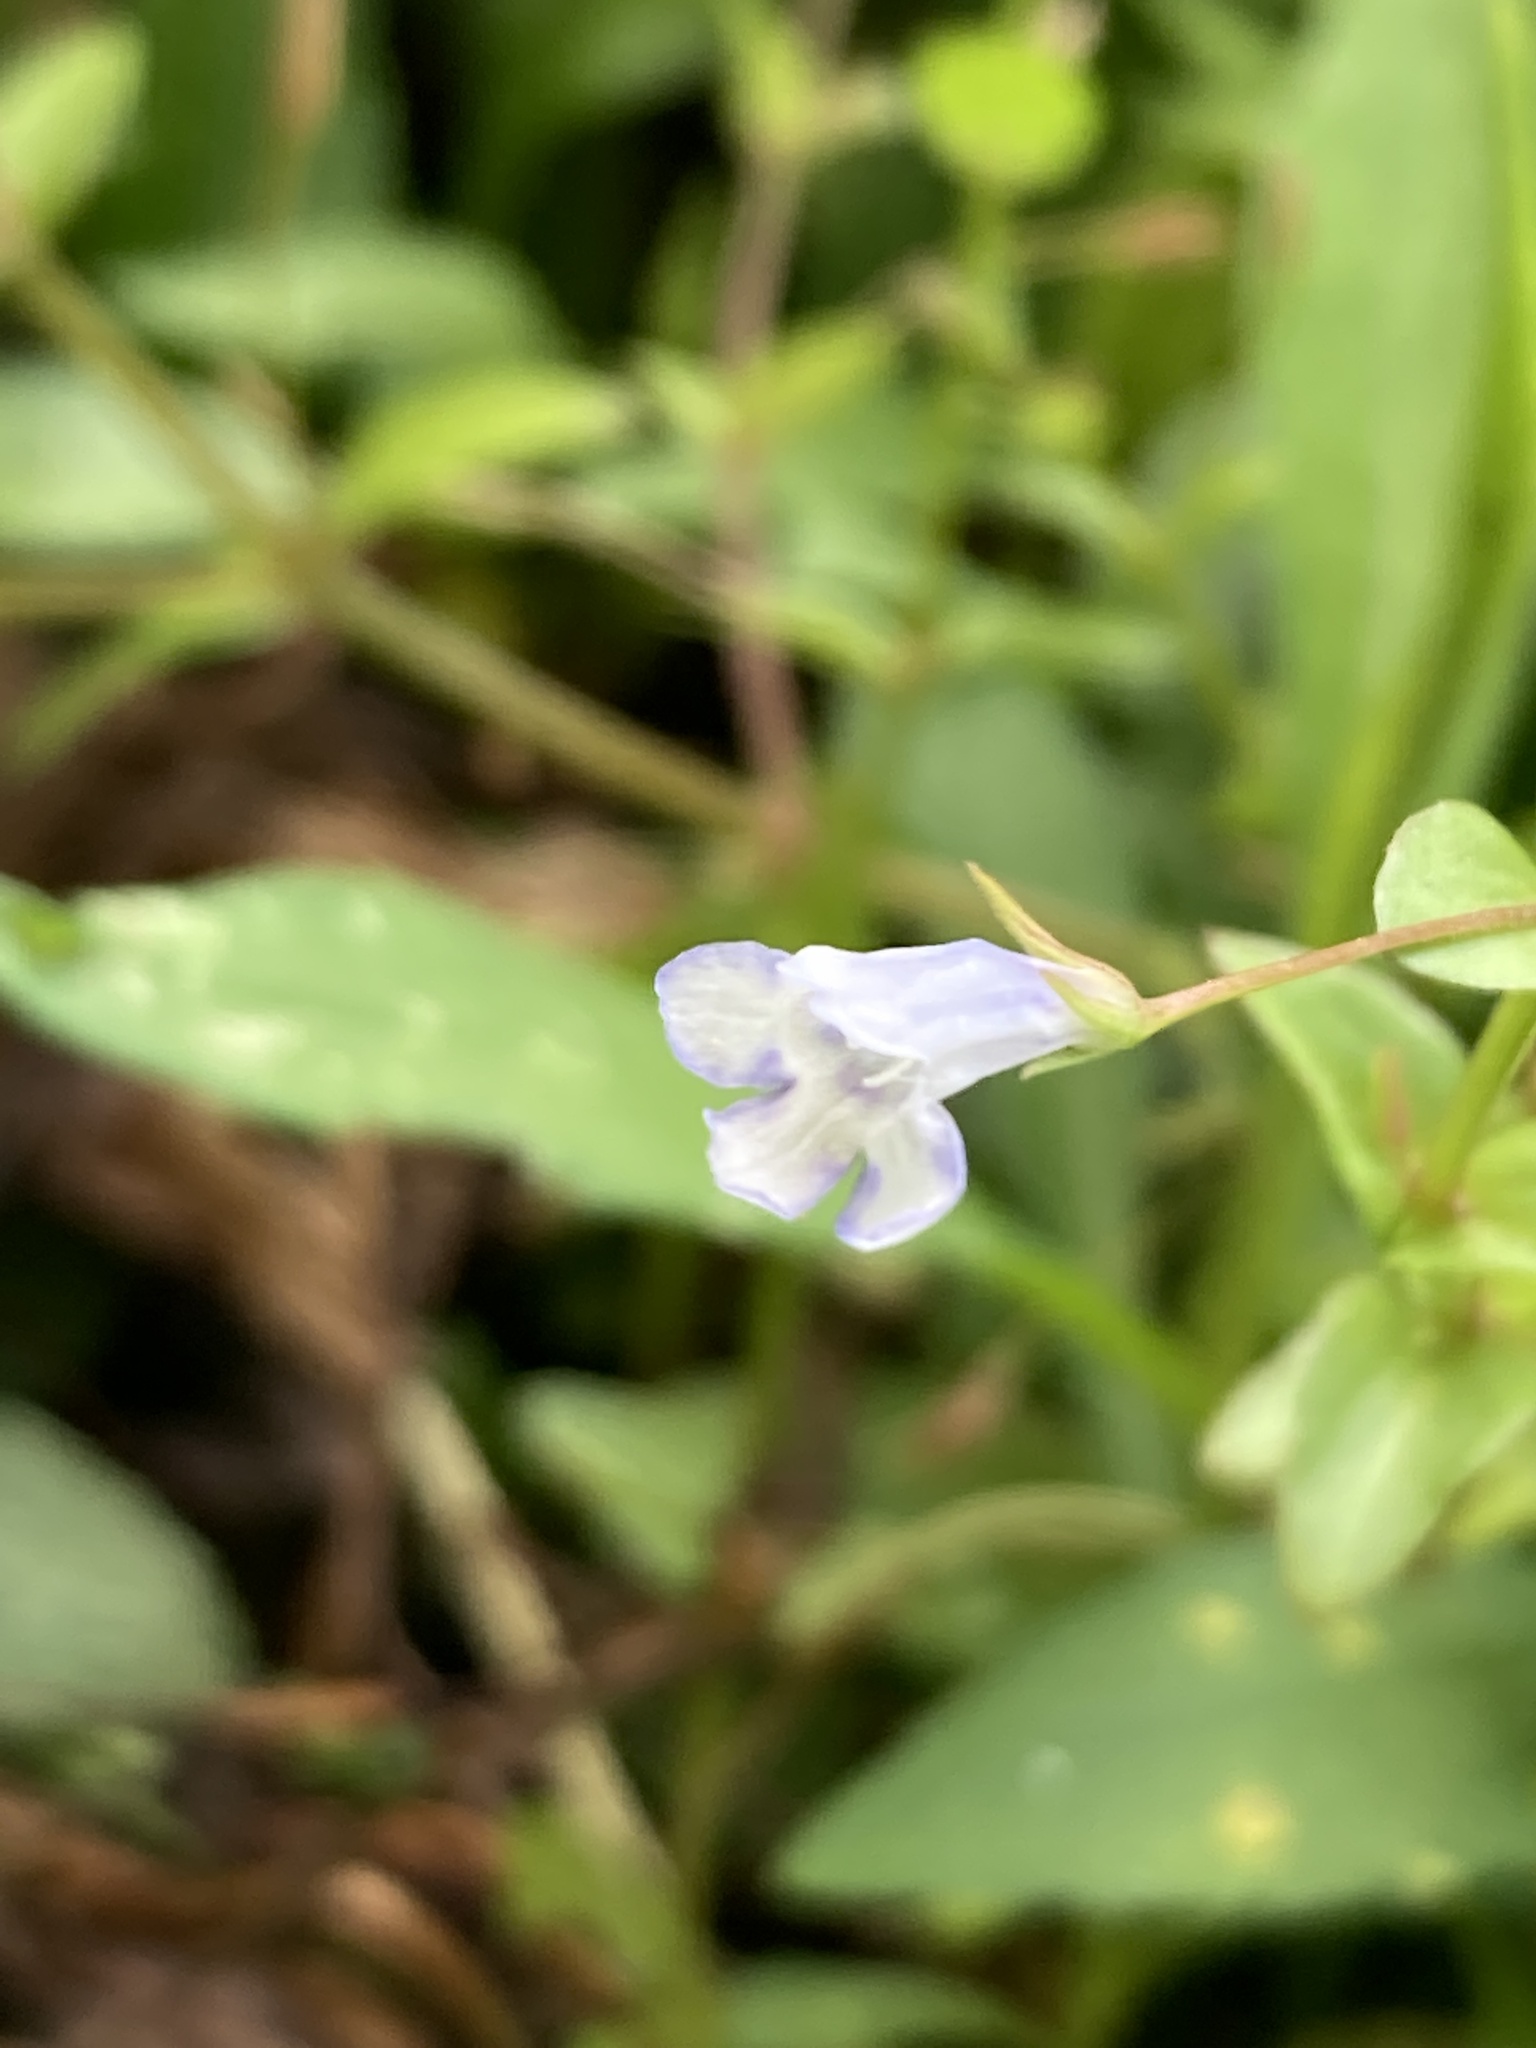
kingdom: Plantae
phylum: Tracheophyta
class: Magnoliopsida
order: Lamiales
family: Linderniaceae
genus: Lindernia
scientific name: Lindernia dubia
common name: Annual false pimpernel
